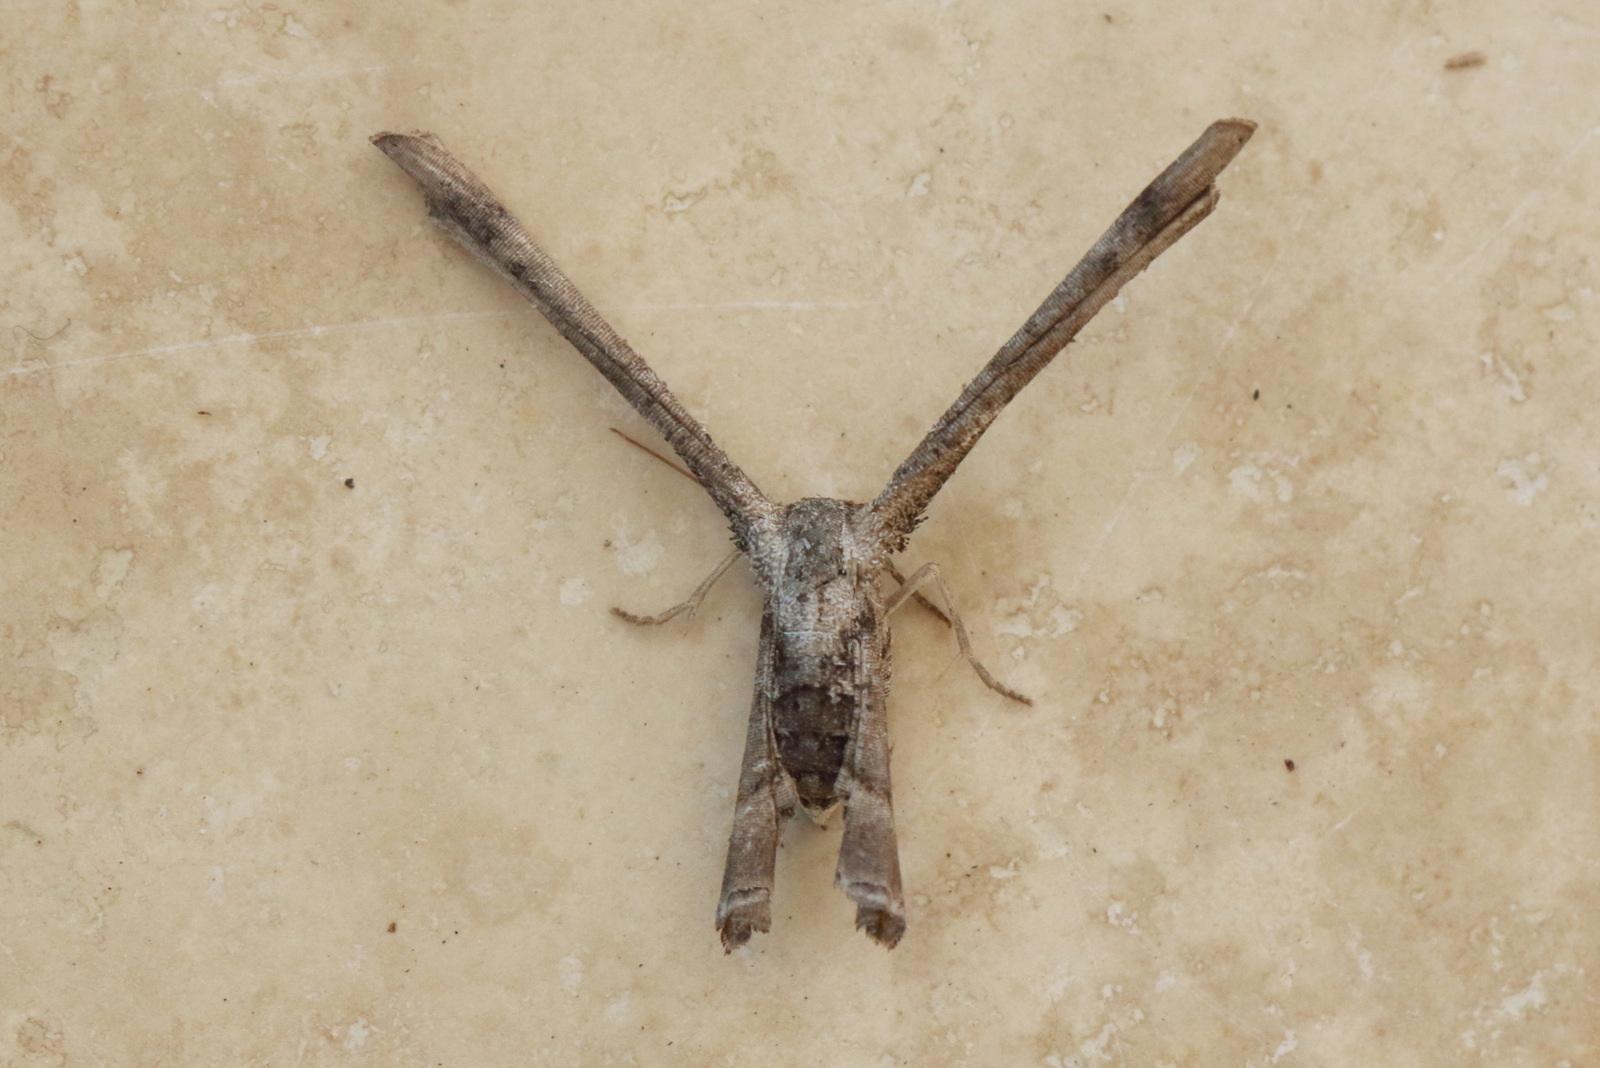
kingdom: Animalia
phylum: Arthropoda
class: Insecta
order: Lepidoptera
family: Uraniidae
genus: Phazaca
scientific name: Phazaca interrupta
